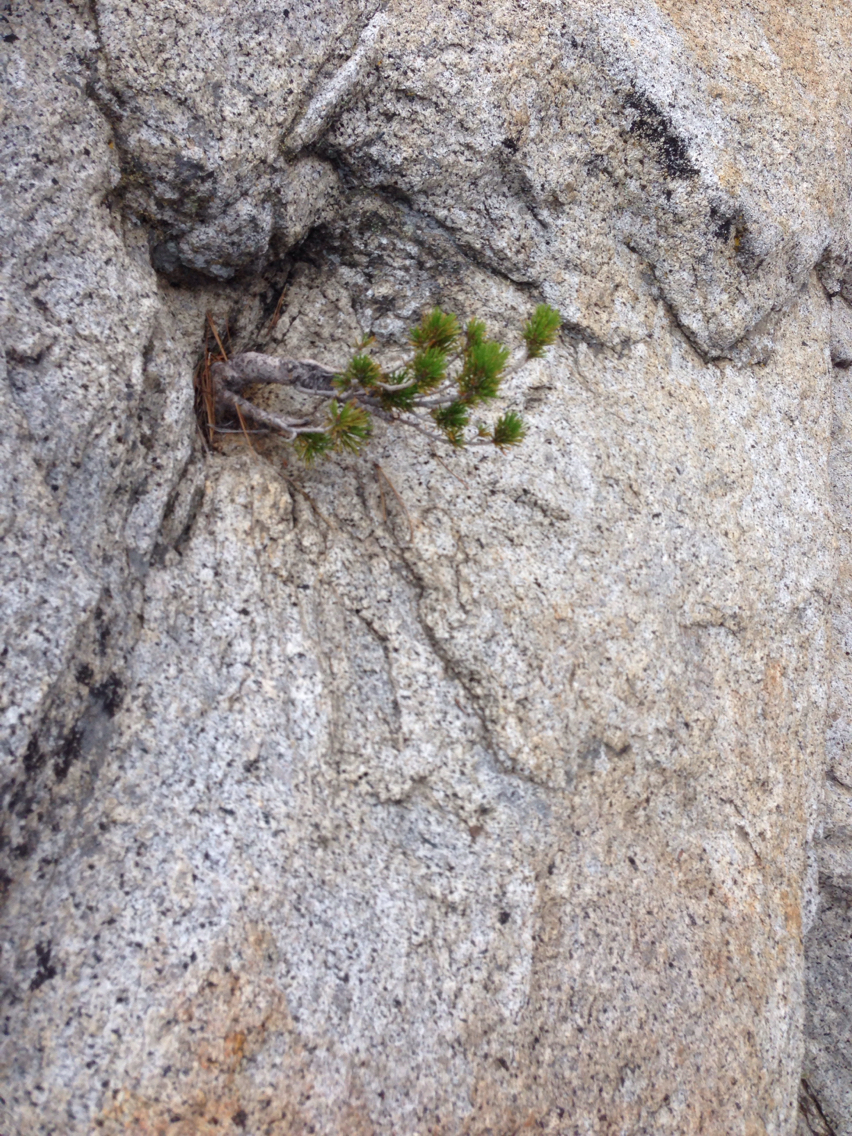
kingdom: Plantae
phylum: Tracheophyta
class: Pinopsida
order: Pinales
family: Pinaceae
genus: Pinus
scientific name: Pinus contorta
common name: Lodgepole pine
